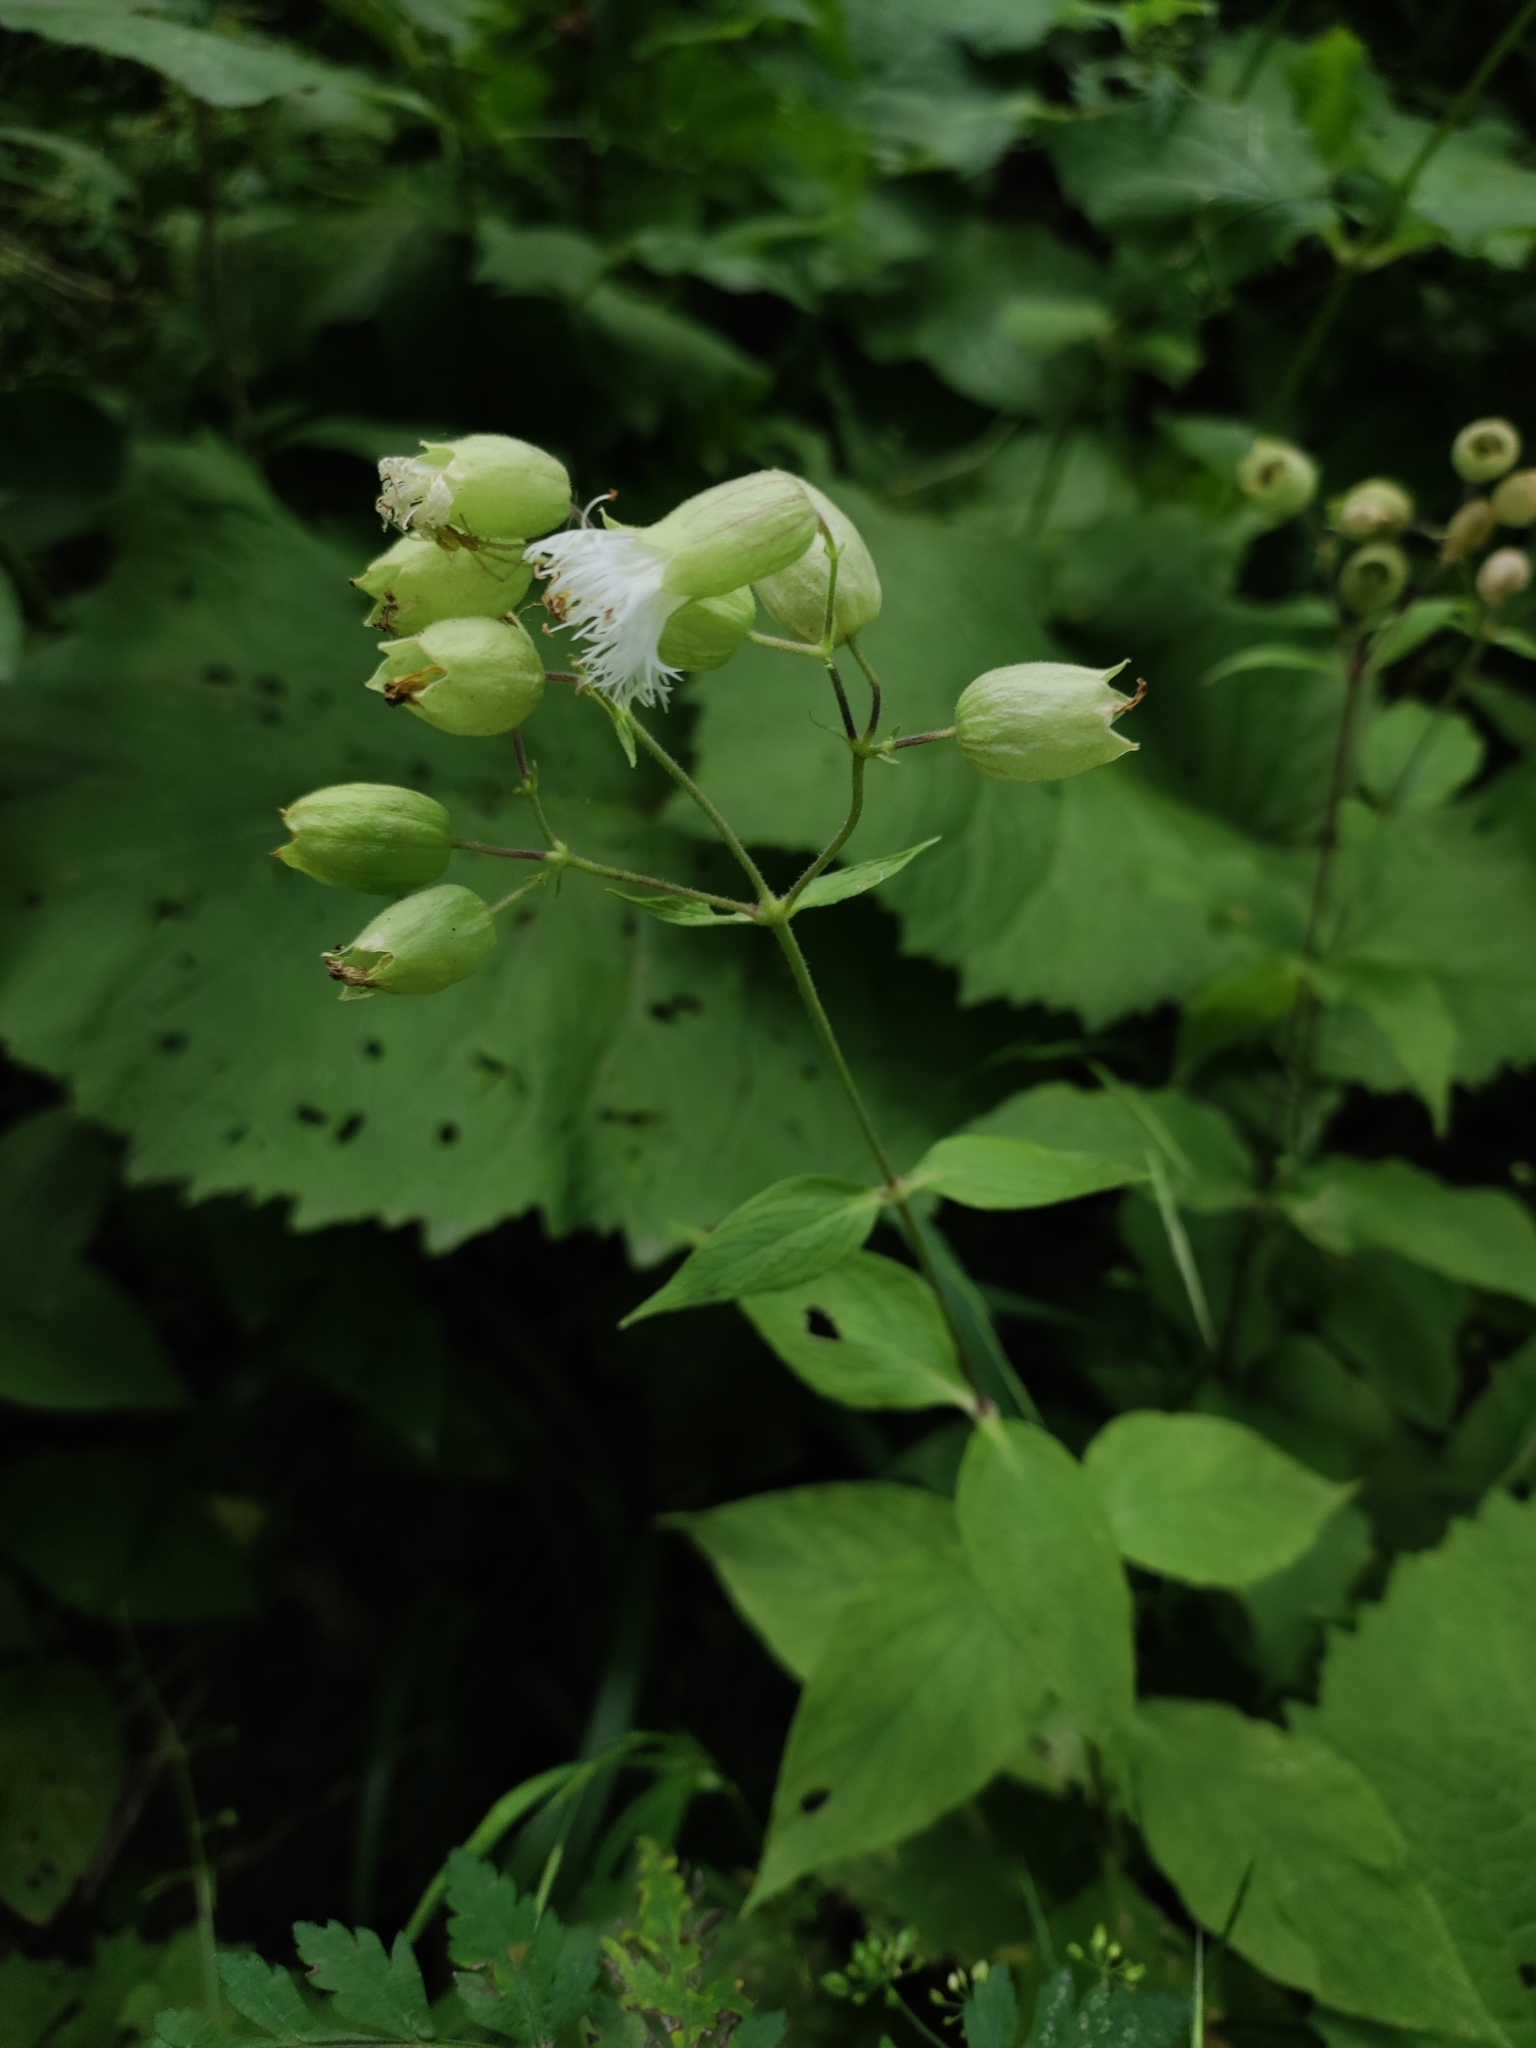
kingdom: Plantae
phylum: Tracheophyta
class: Magnoliopsida
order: Caryophyllales
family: Caryophyllaceae
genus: Silene
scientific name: Silene vulgaris
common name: Bladder campion
